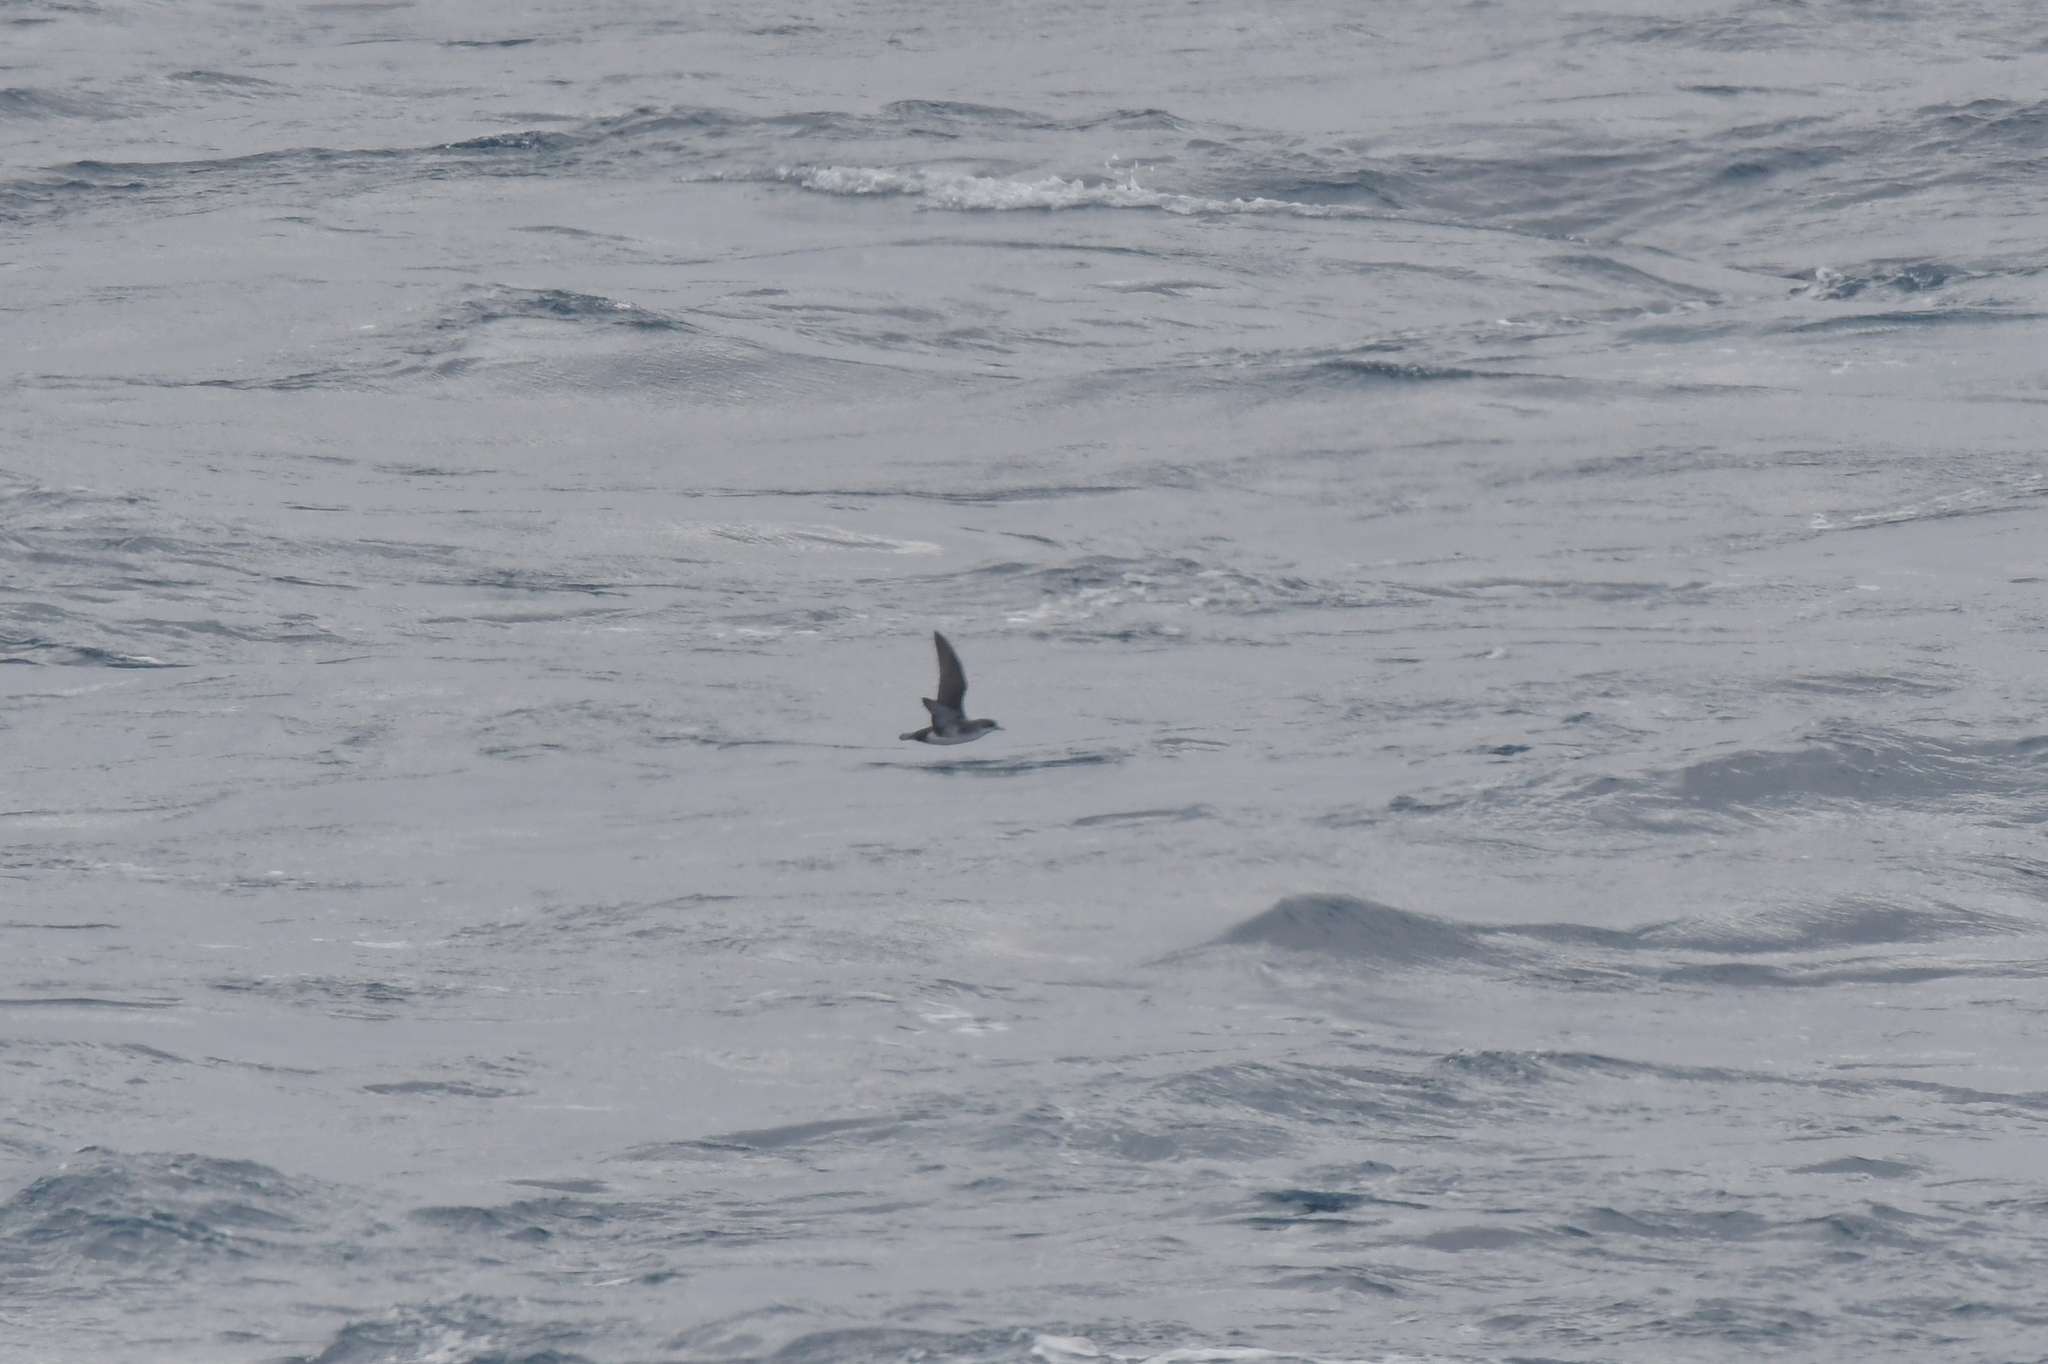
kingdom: Animalia
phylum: Chordata
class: Aves
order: Procellariiformes
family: Procellariidae
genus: Puffinus
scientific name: Puffinus assimilis
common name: Little shearwater
